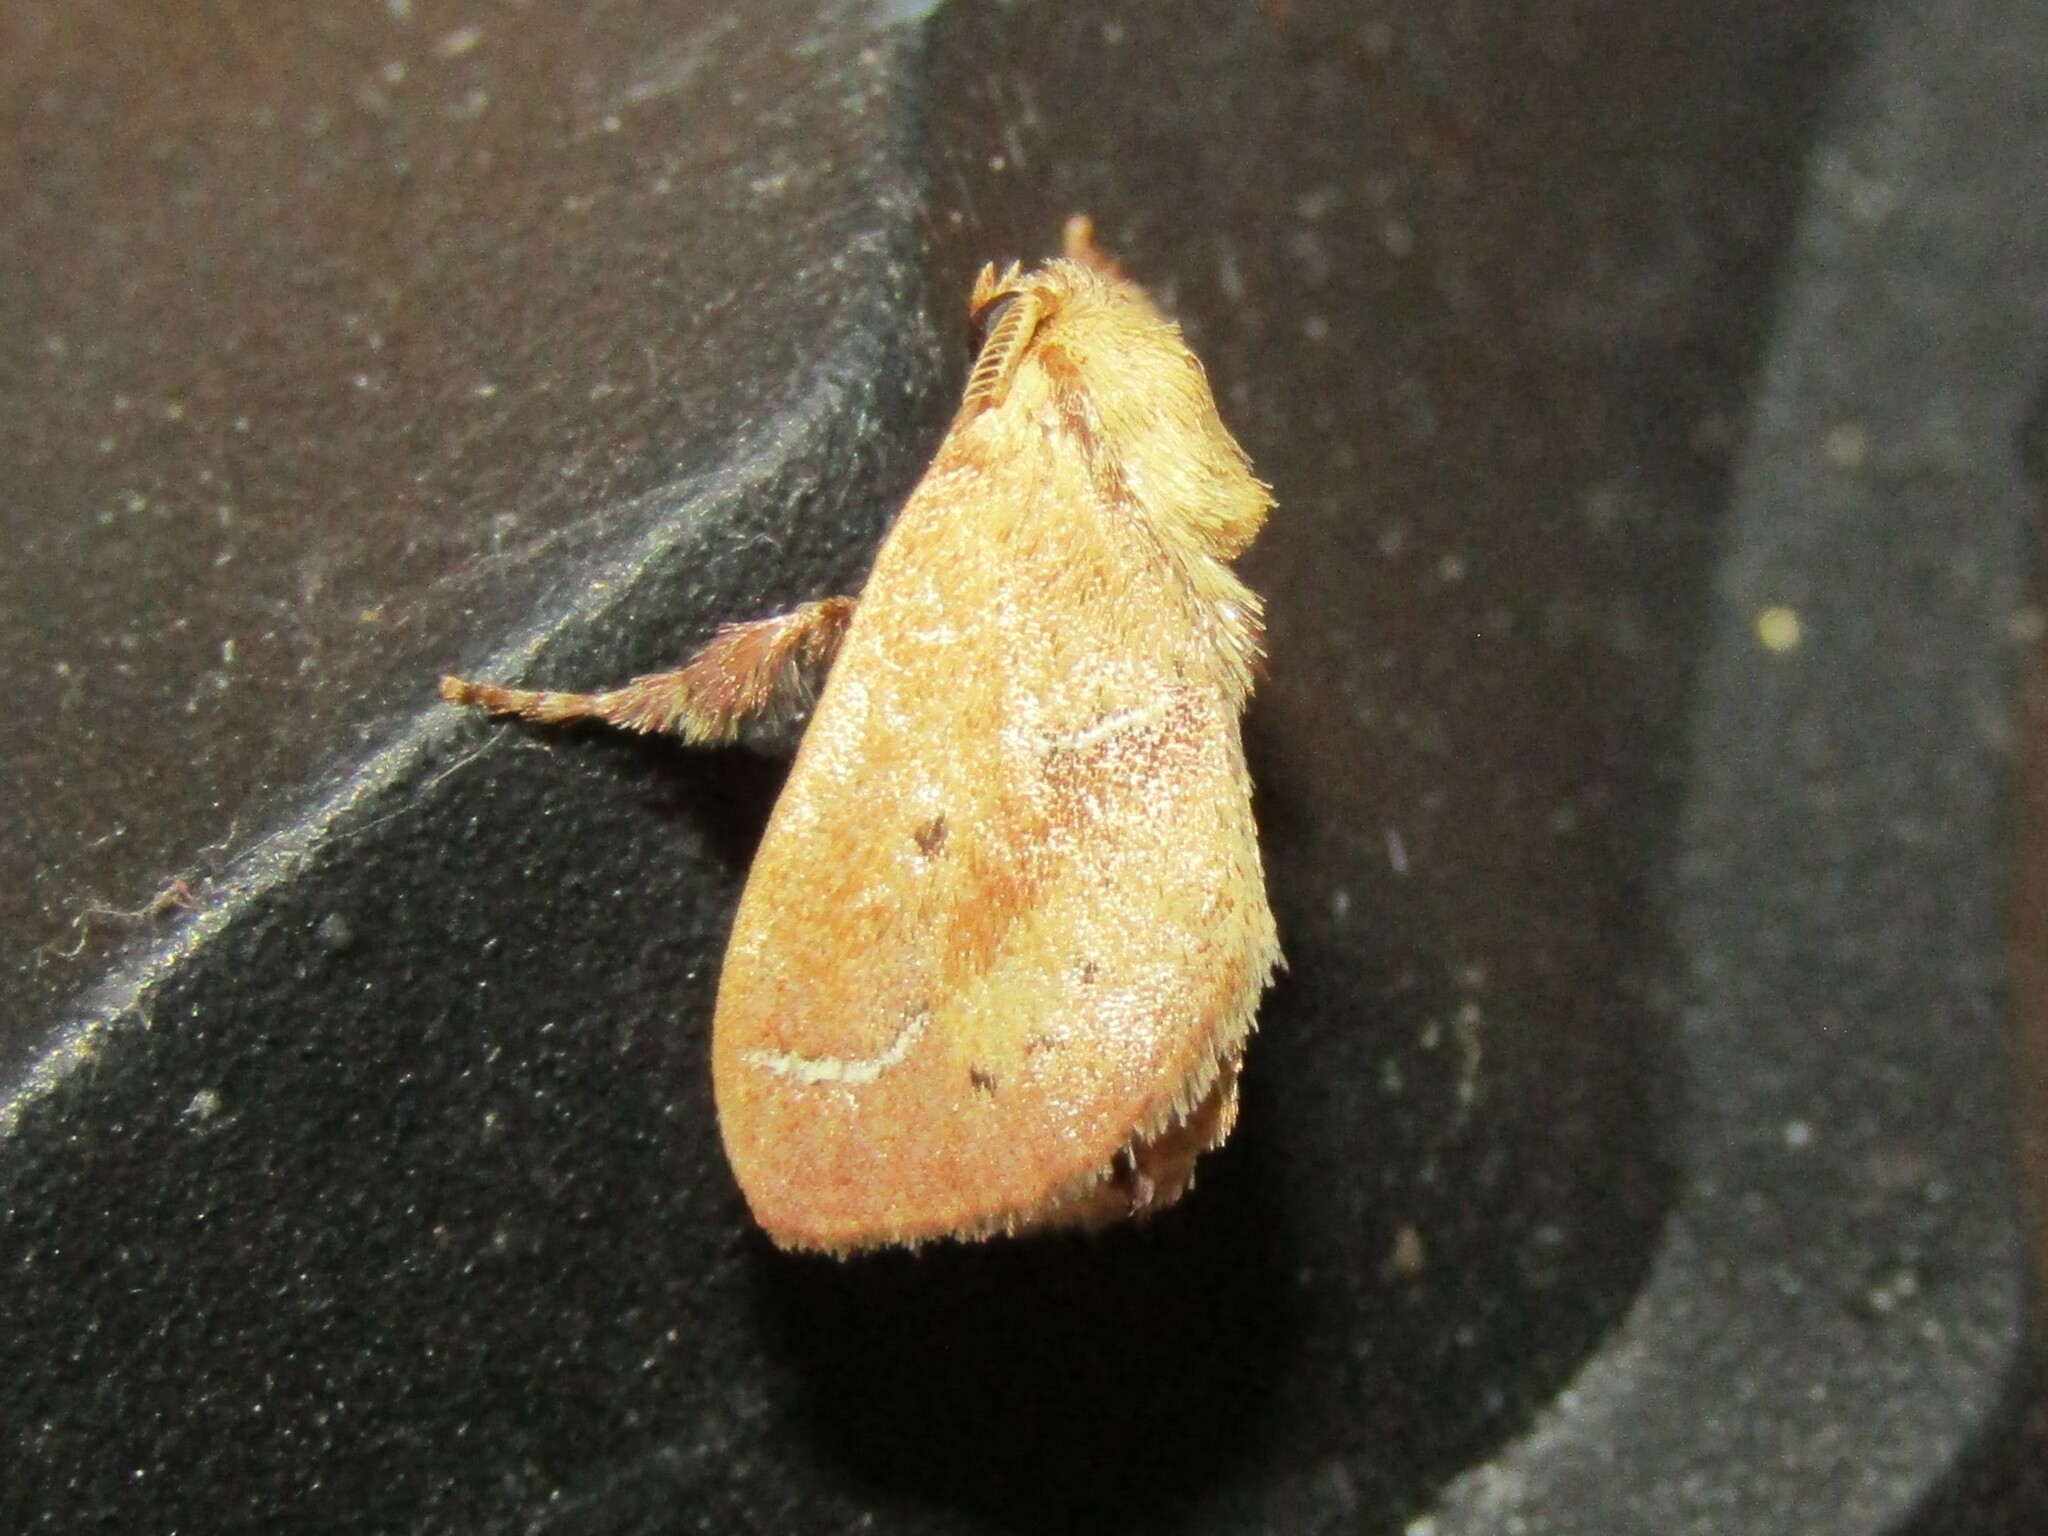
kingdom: Animalia
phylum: Arthropoda
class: Insecta
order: Lepidoptera
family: Limacodidae
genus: Adoneta
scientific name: Adoneta bicaudata
